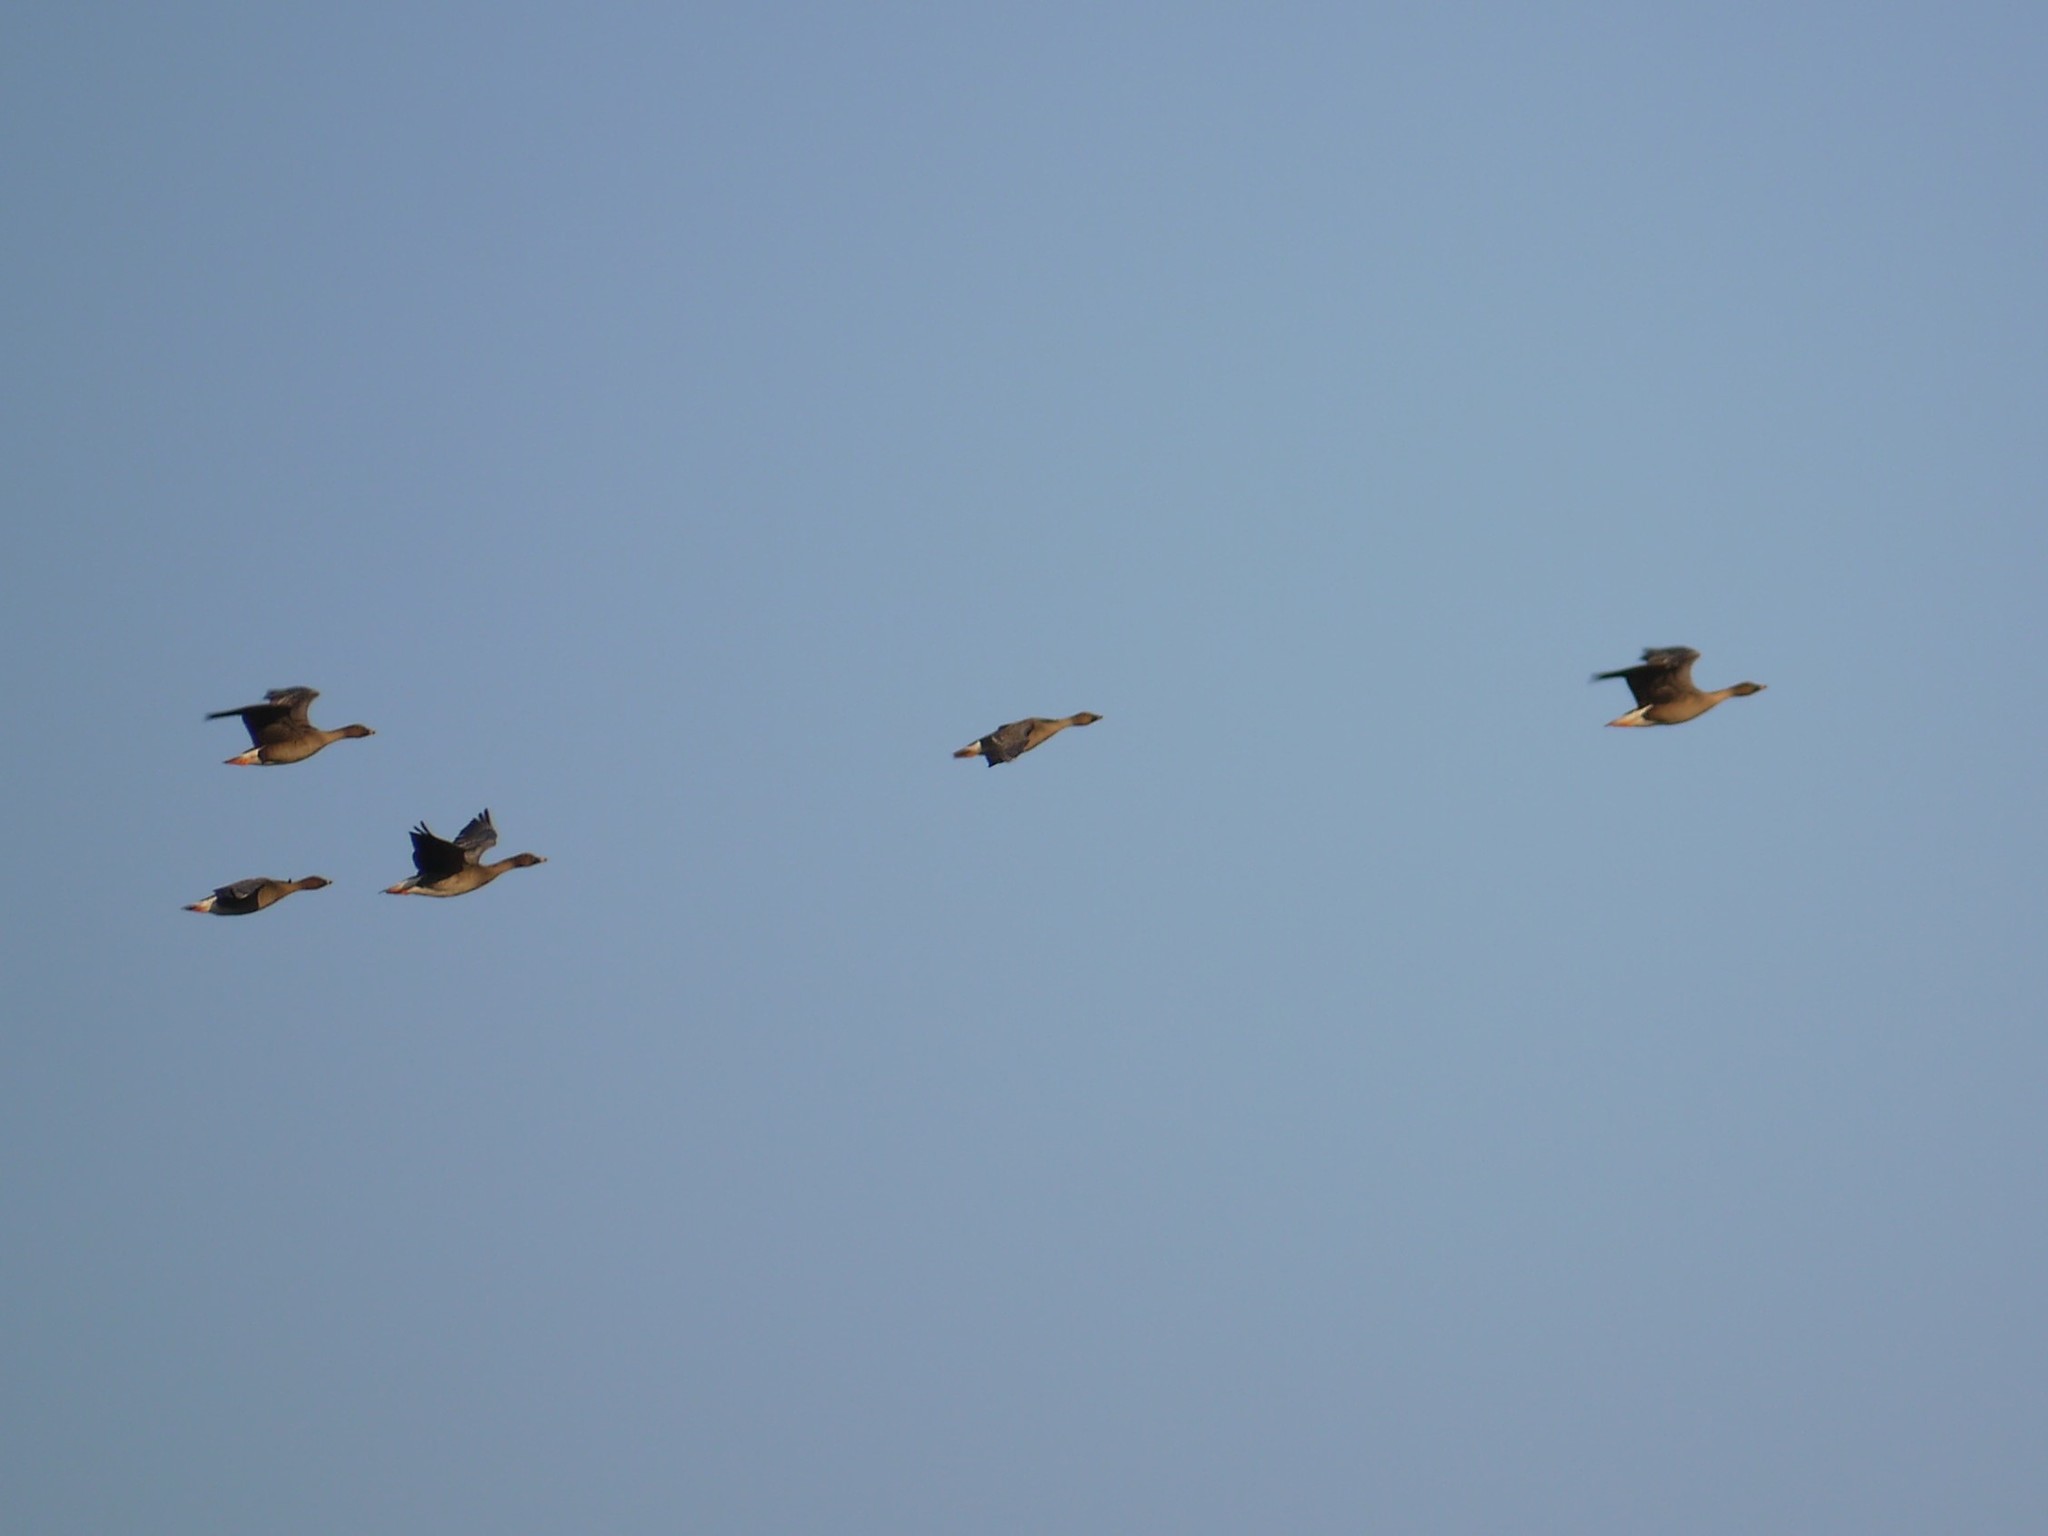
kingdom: Animalia
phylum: Chordata
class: Aves
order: Anseriformes
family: Anatidae
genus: Anser
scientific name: Anser serrirostris
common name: Tundra bean goose
